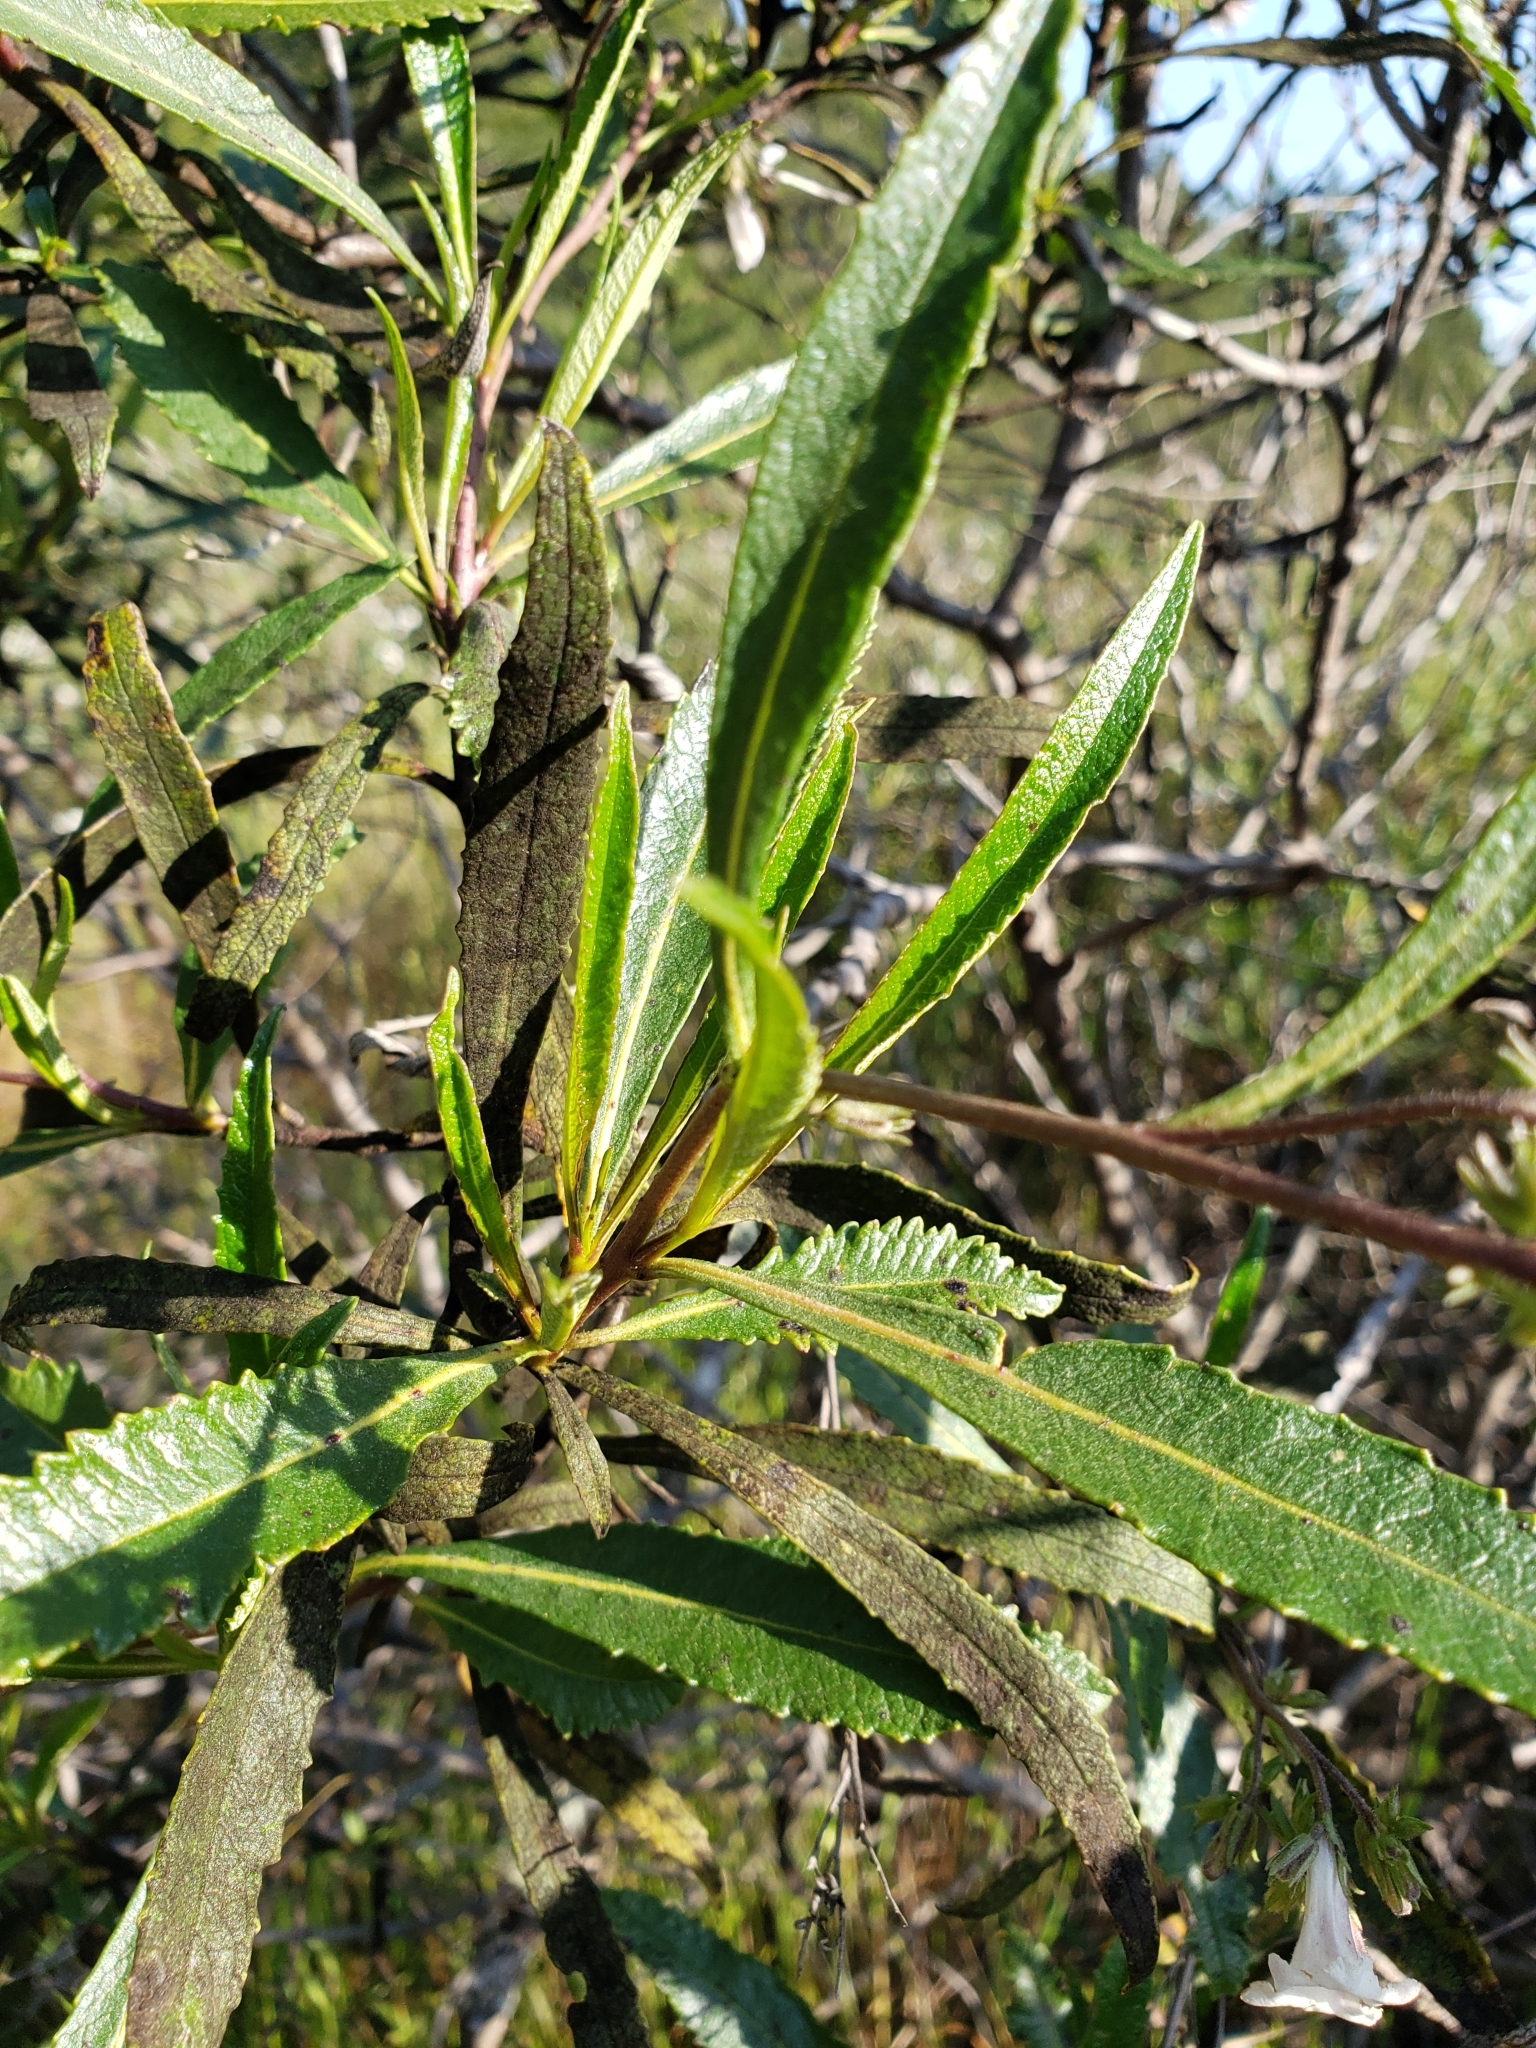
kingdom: Plantae
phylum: Tracheophyta
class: Magnoliopsida
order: Boraginales
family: Namaceae
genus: Eriodictyon
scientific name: Eriodictyon californicum
